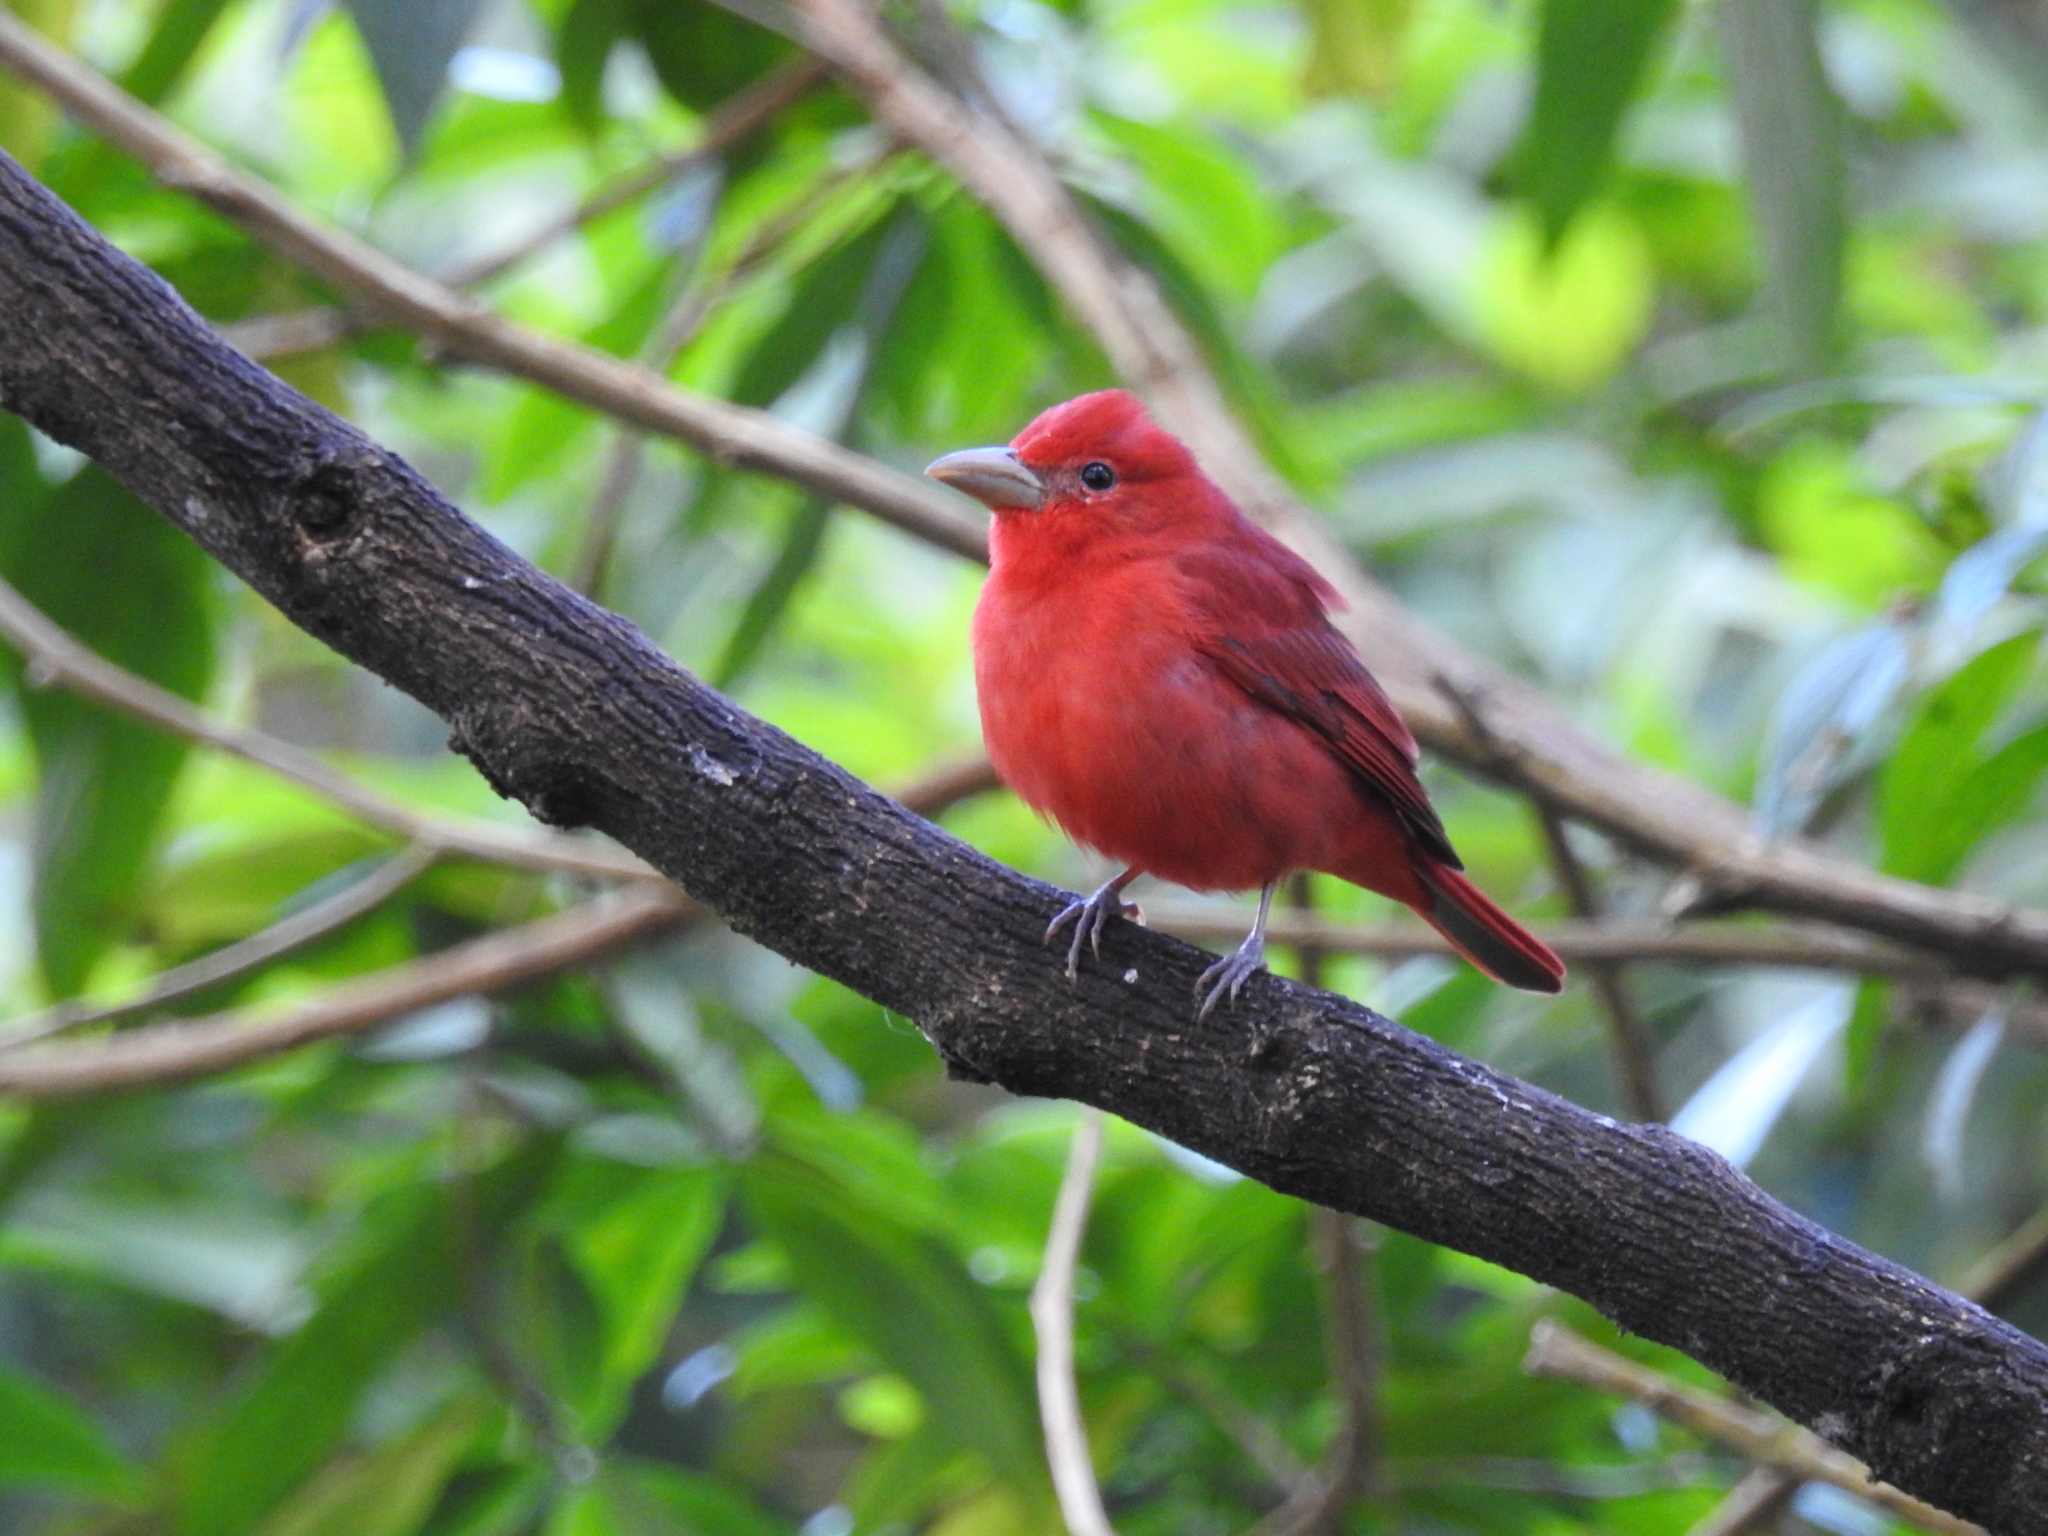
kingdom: Animalia
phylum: Chordata
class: Aves
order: Passeriformes
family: Cardinalidae
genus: Piranga
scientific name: Piranga rubra
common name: Summer tanager
